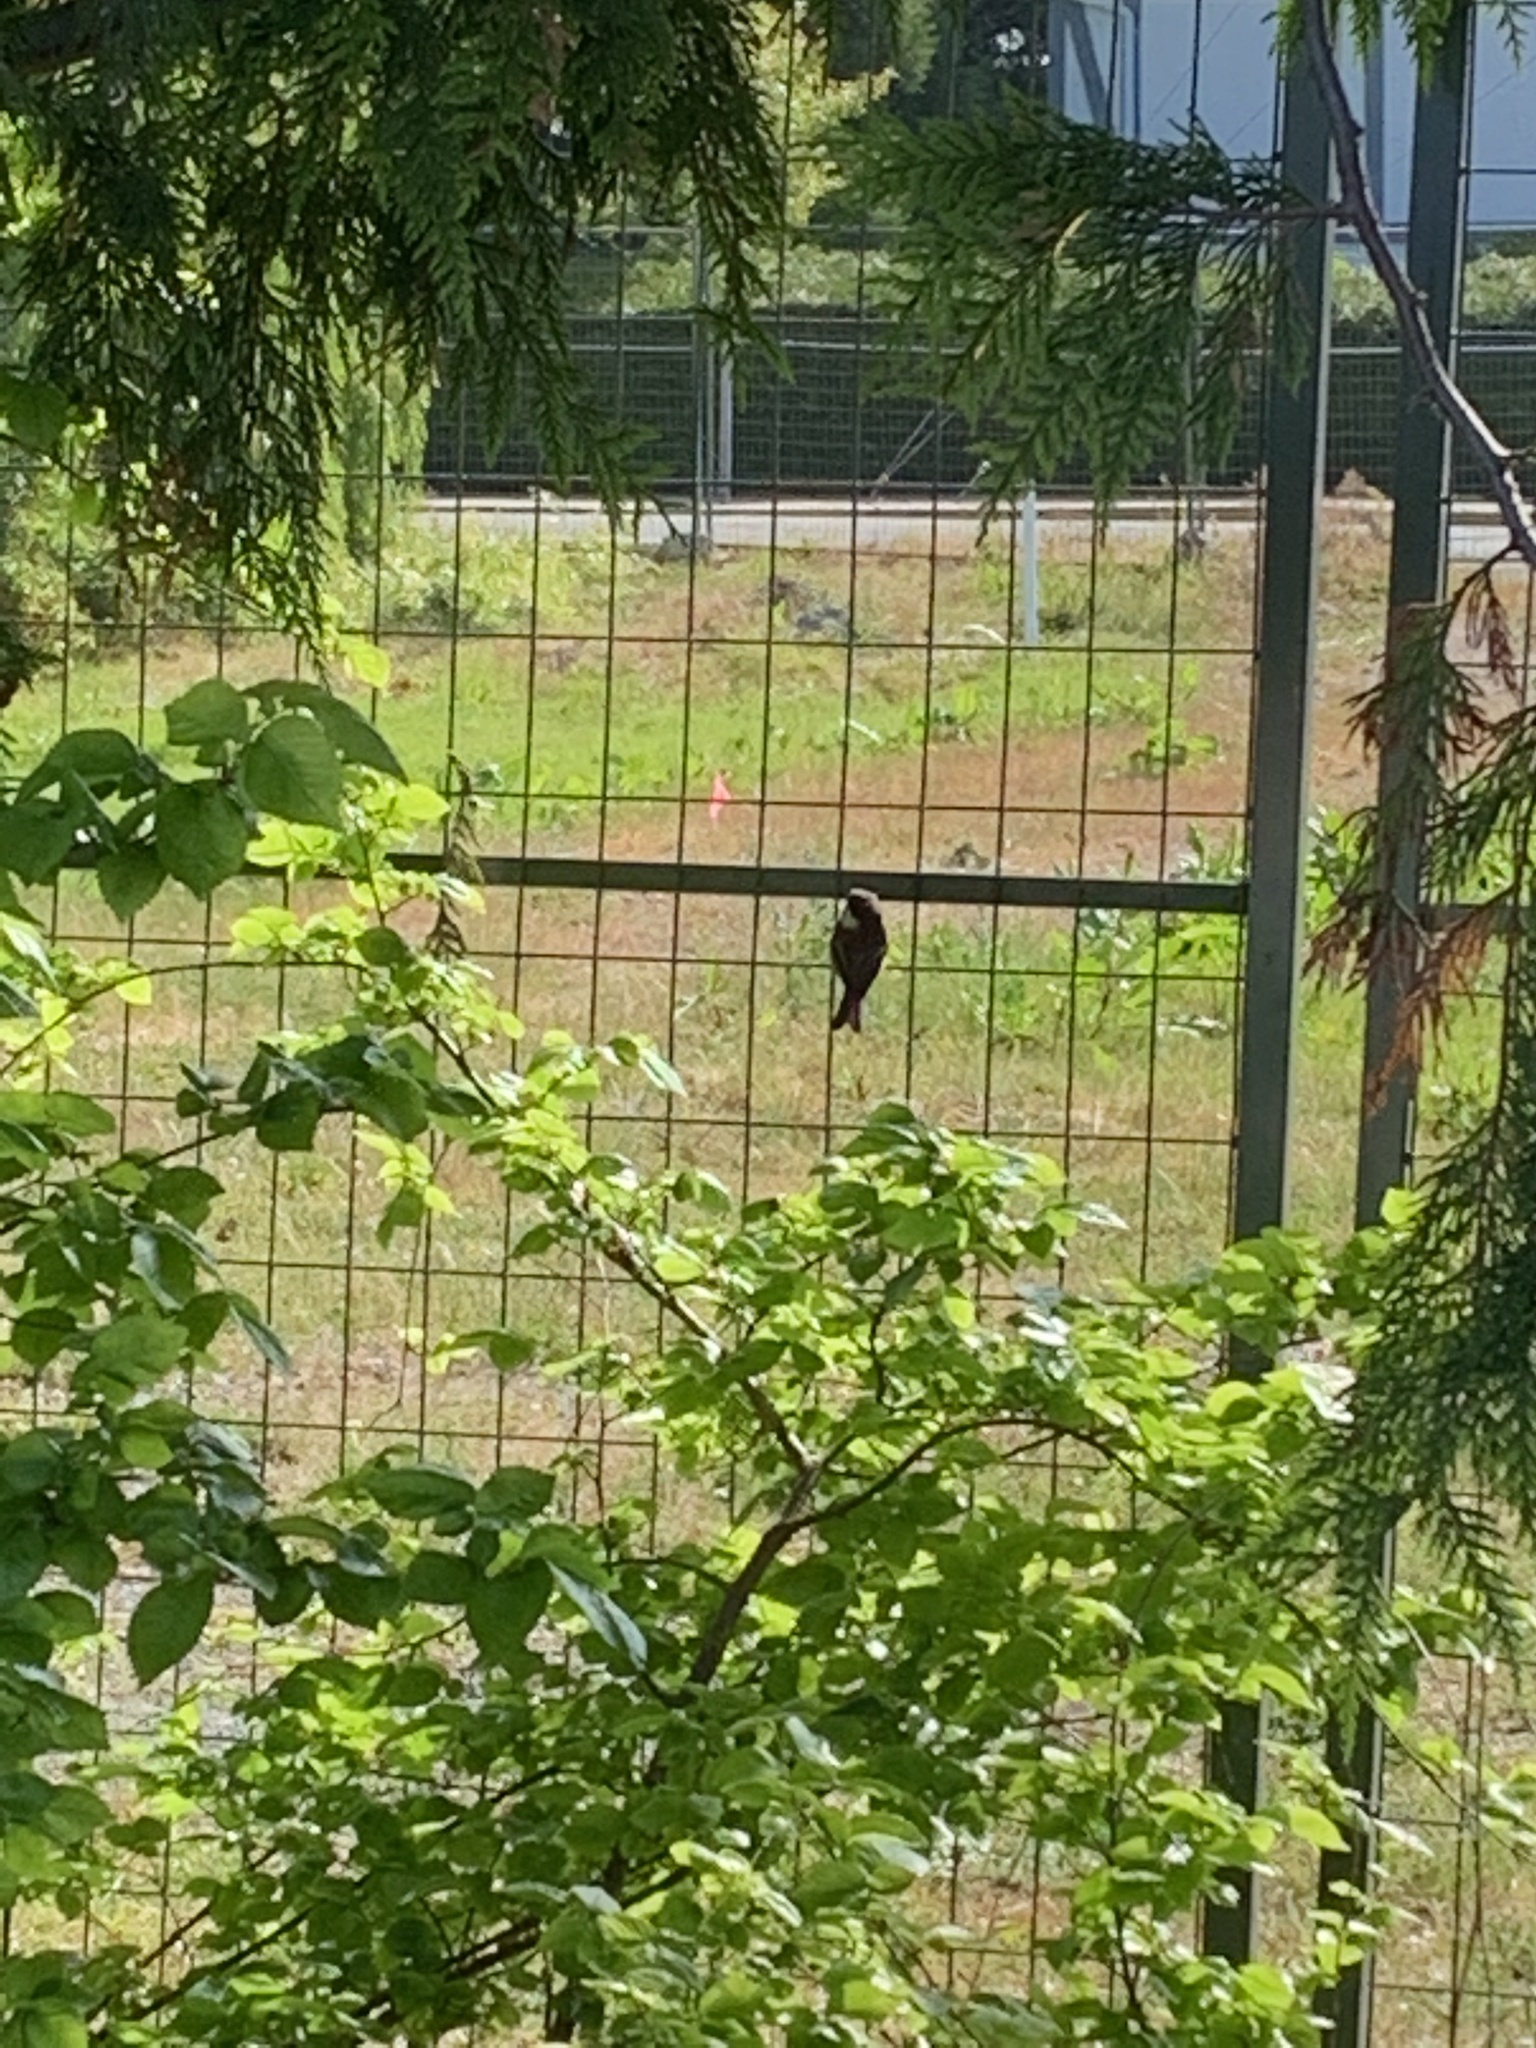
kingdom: Animalia
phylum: Chordata
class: Aves
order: Passeriformes
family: Paridae
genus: Poecile
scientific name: Poecile rufescens
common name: Chestnut-backed chickadee
